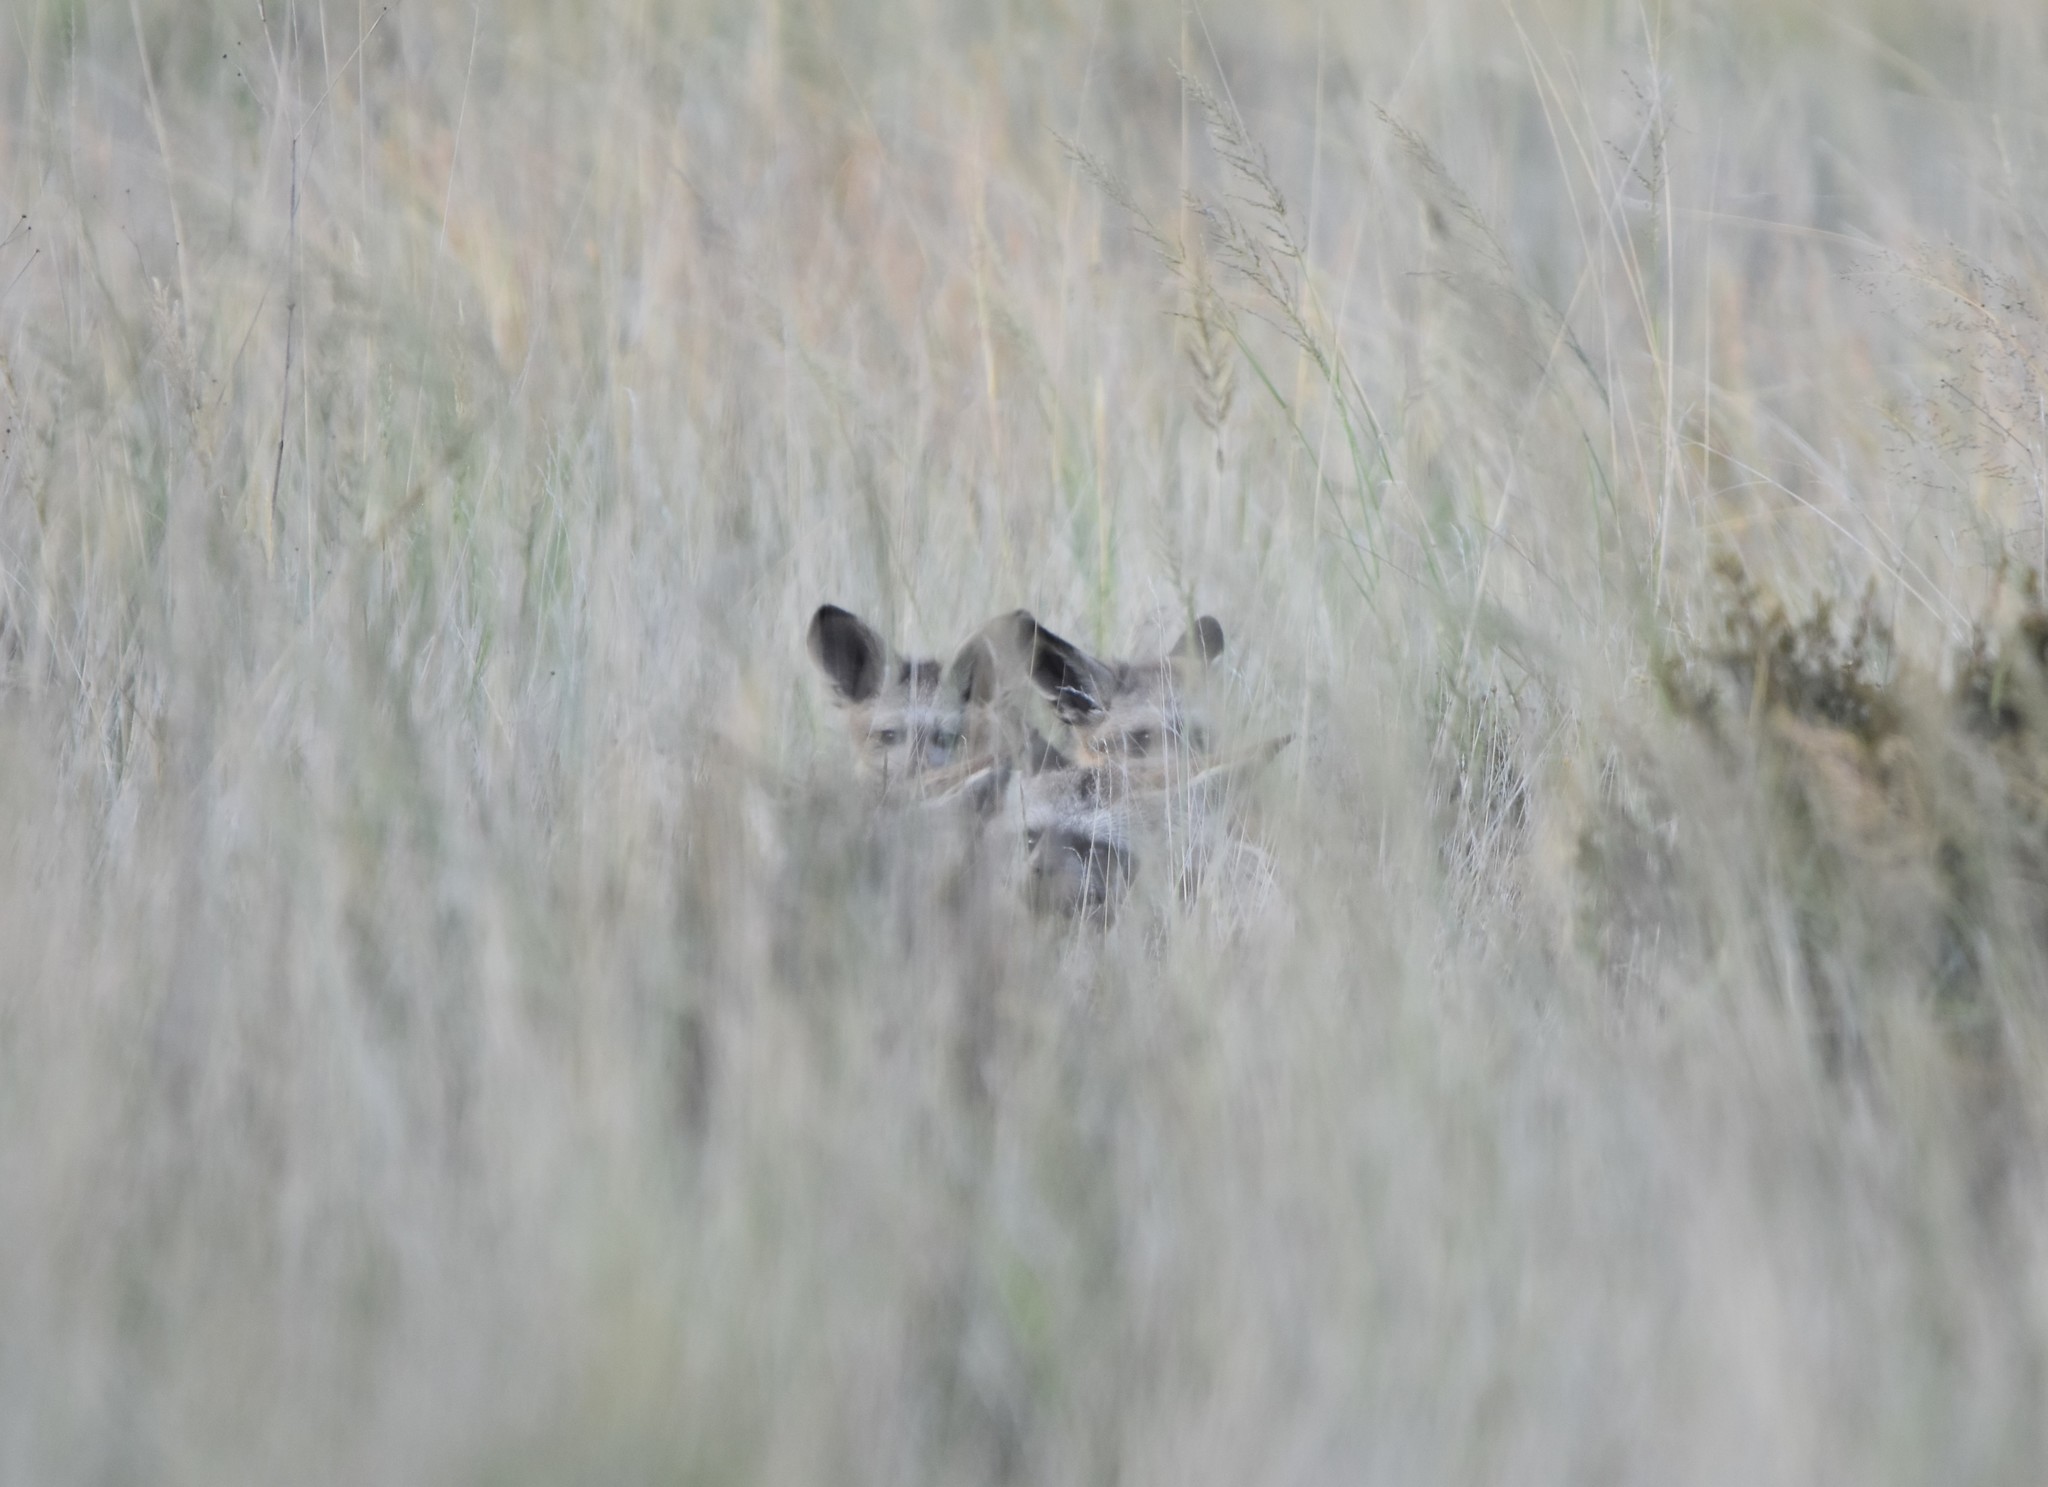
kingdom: Animalia
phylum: Chordata
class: Mammalia
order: Carnivora
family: Canidae
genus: Otocyon
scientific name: Otocyon megalotis
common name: Bat-eared fox
